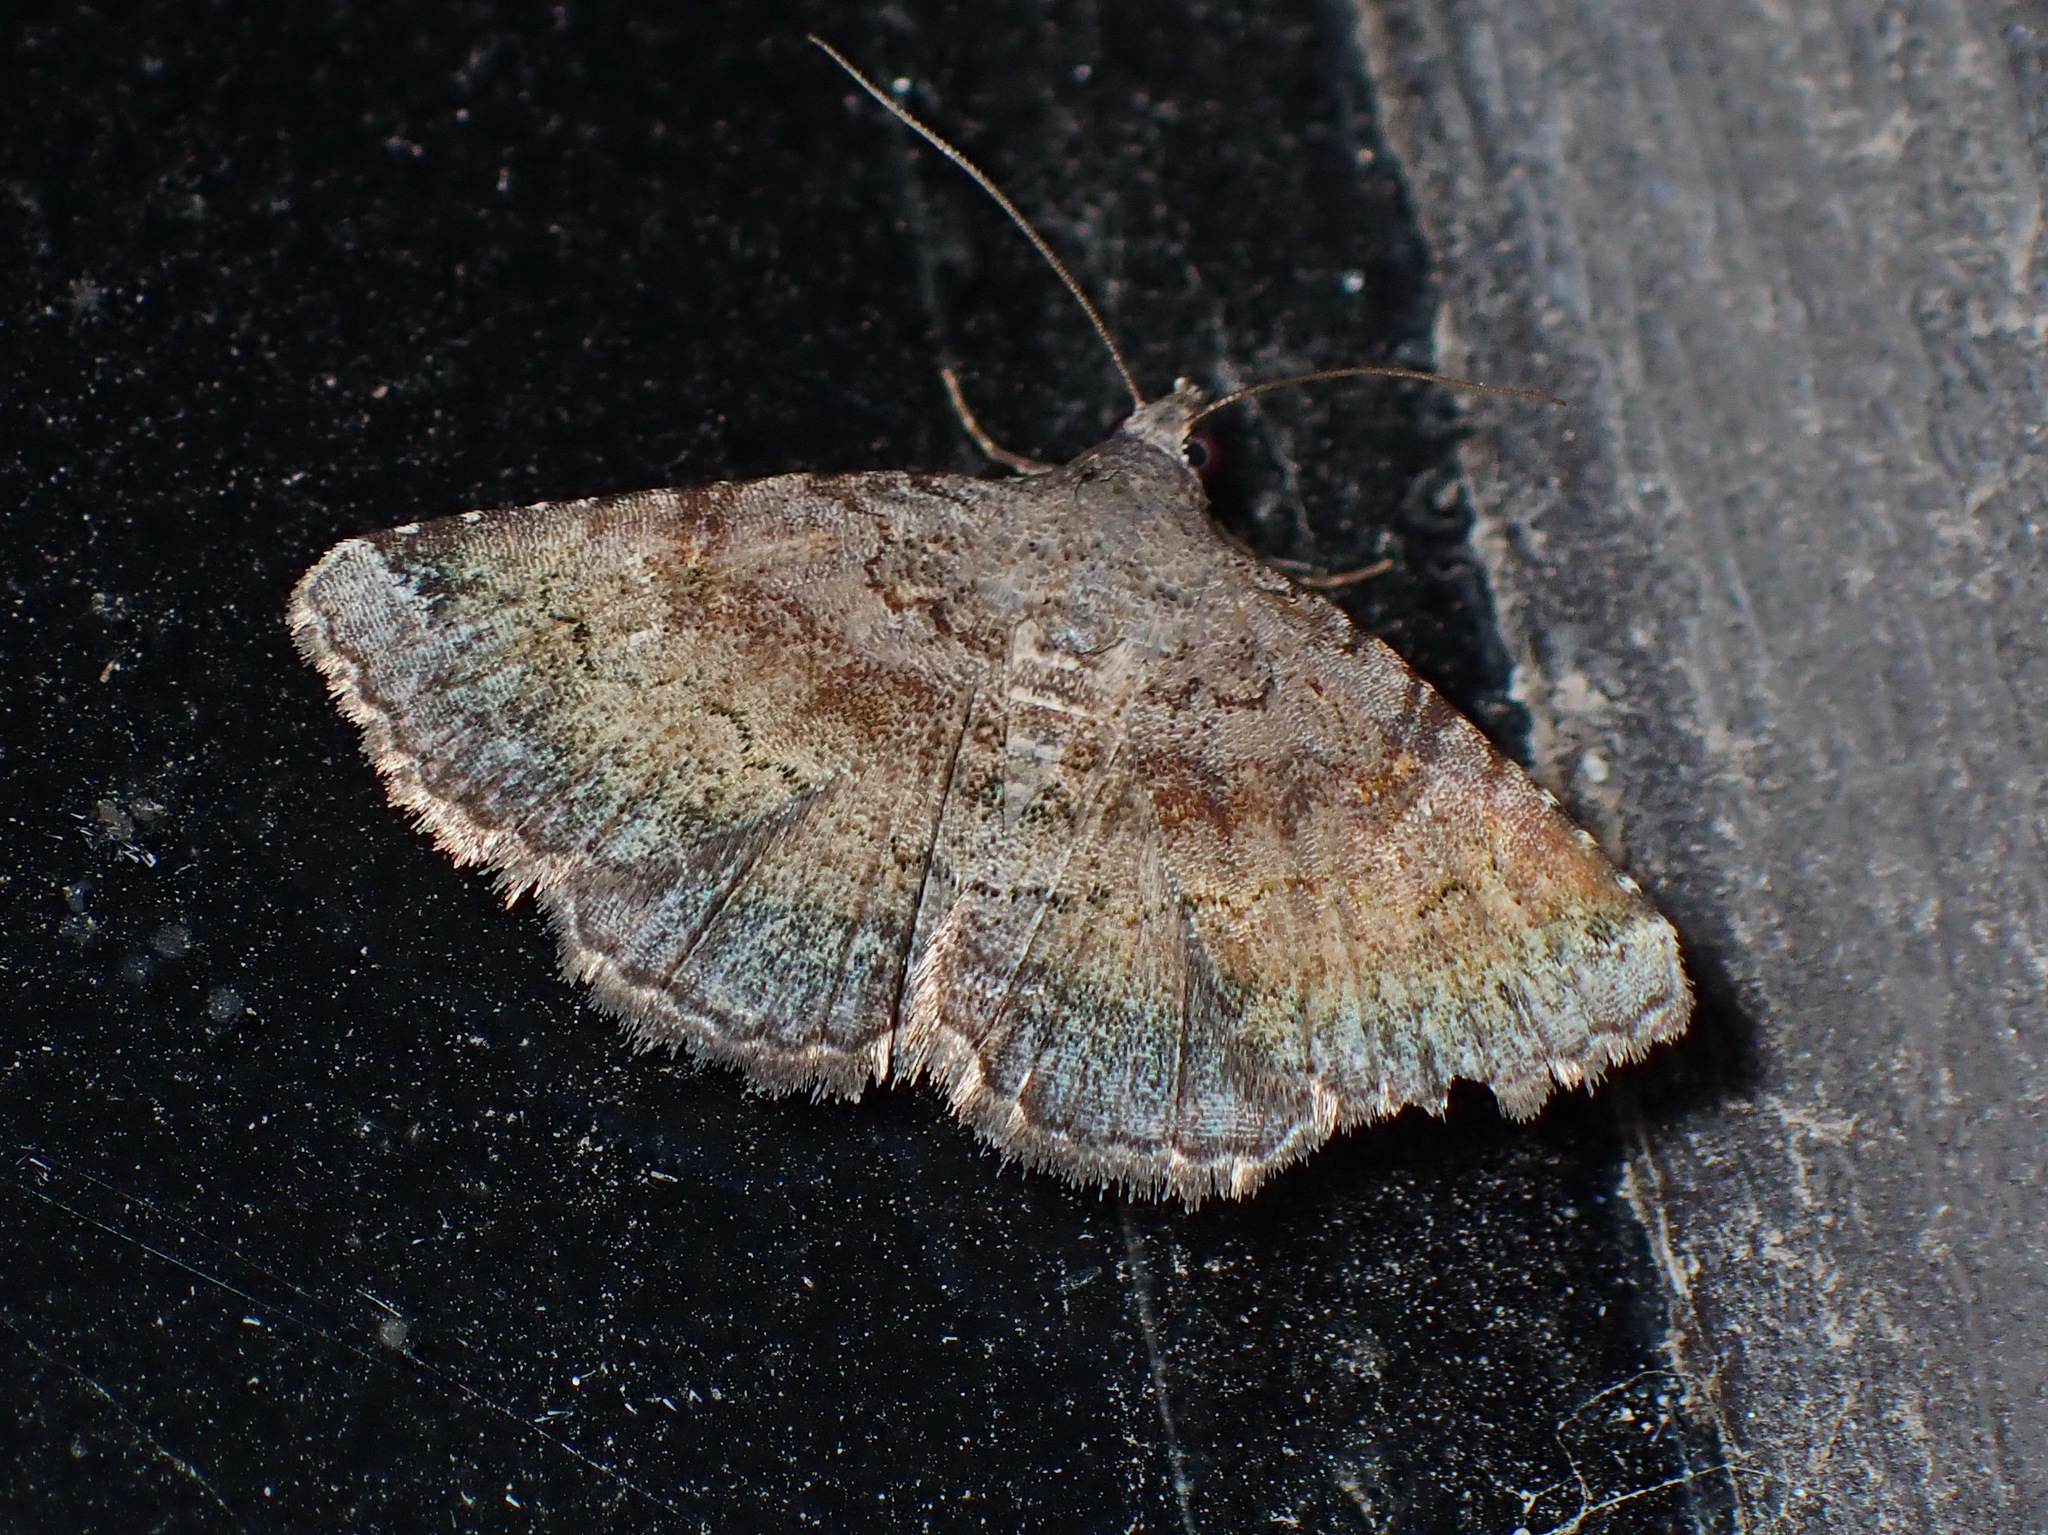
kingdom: Animalia
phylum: Arthropoda
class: Insecta
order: Lepidoptera
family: Erebidae
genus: Toxonprucha
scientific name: Toxonprucha crudelis
